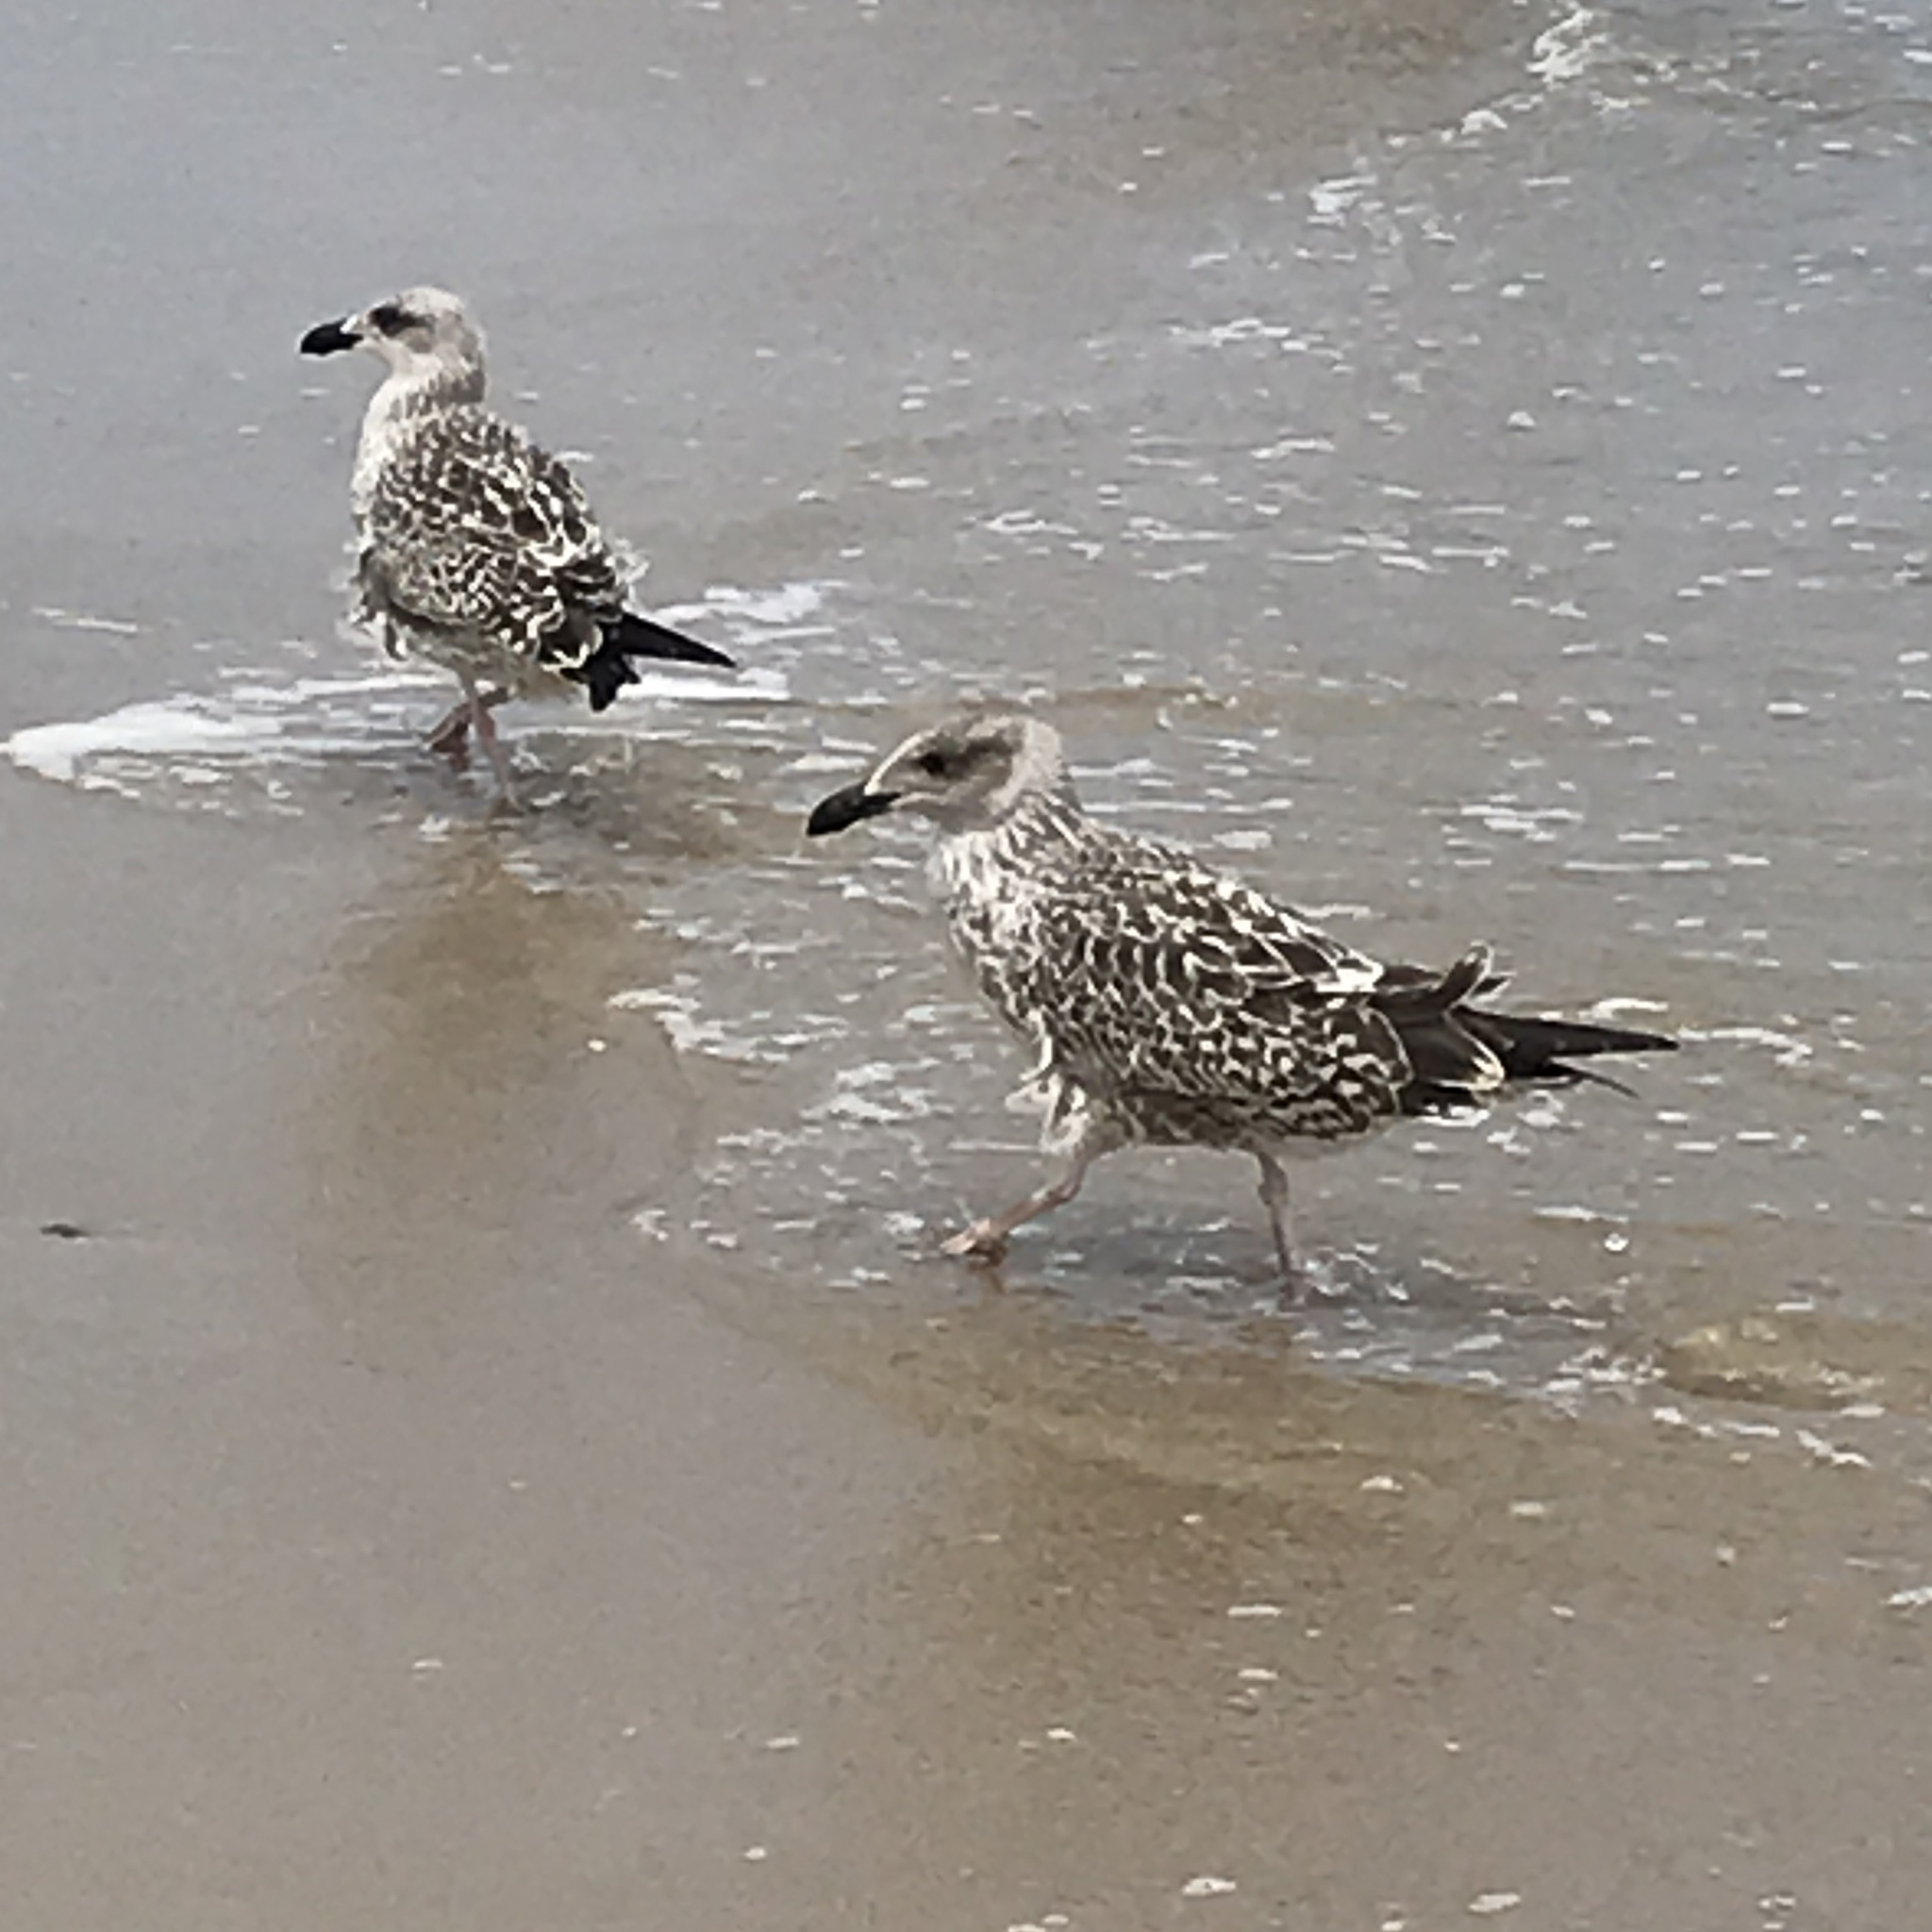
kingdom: Animalia
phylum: Chordata
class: Aves
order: Charadriiformes
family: Laridae
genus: Larus
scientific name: Larus fuscus
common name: Lesser black-backed gull
